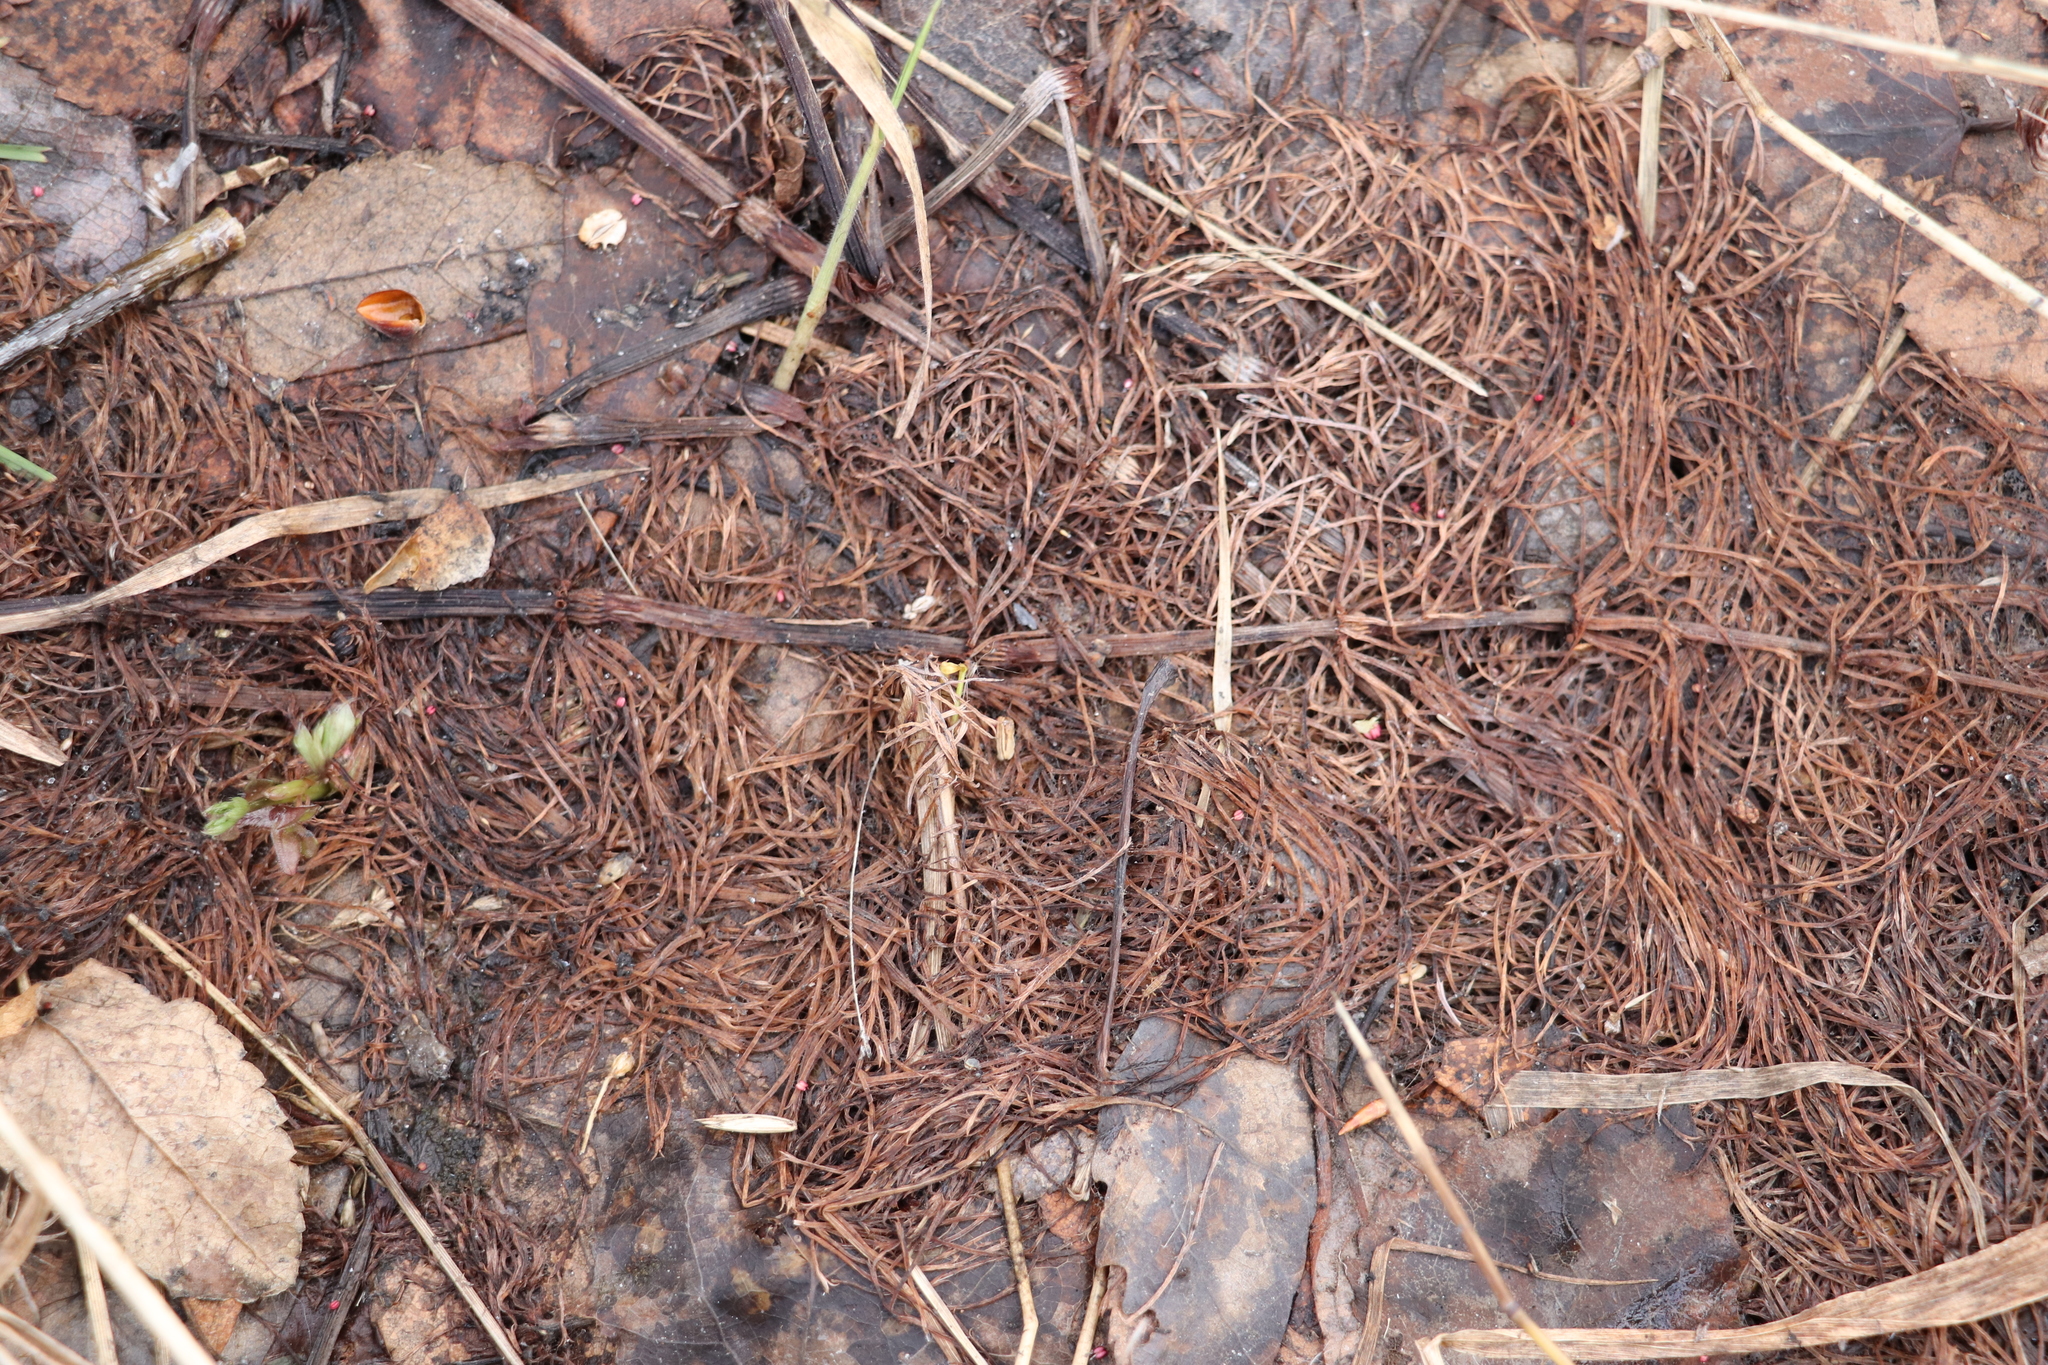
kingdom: Plantae
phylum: Tracheophyta
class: Polypodiopsida
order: Equisetales
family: Equisetaceae
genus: Equisetum
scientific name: Equisetum sylvaticum
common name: Wood horsetail
